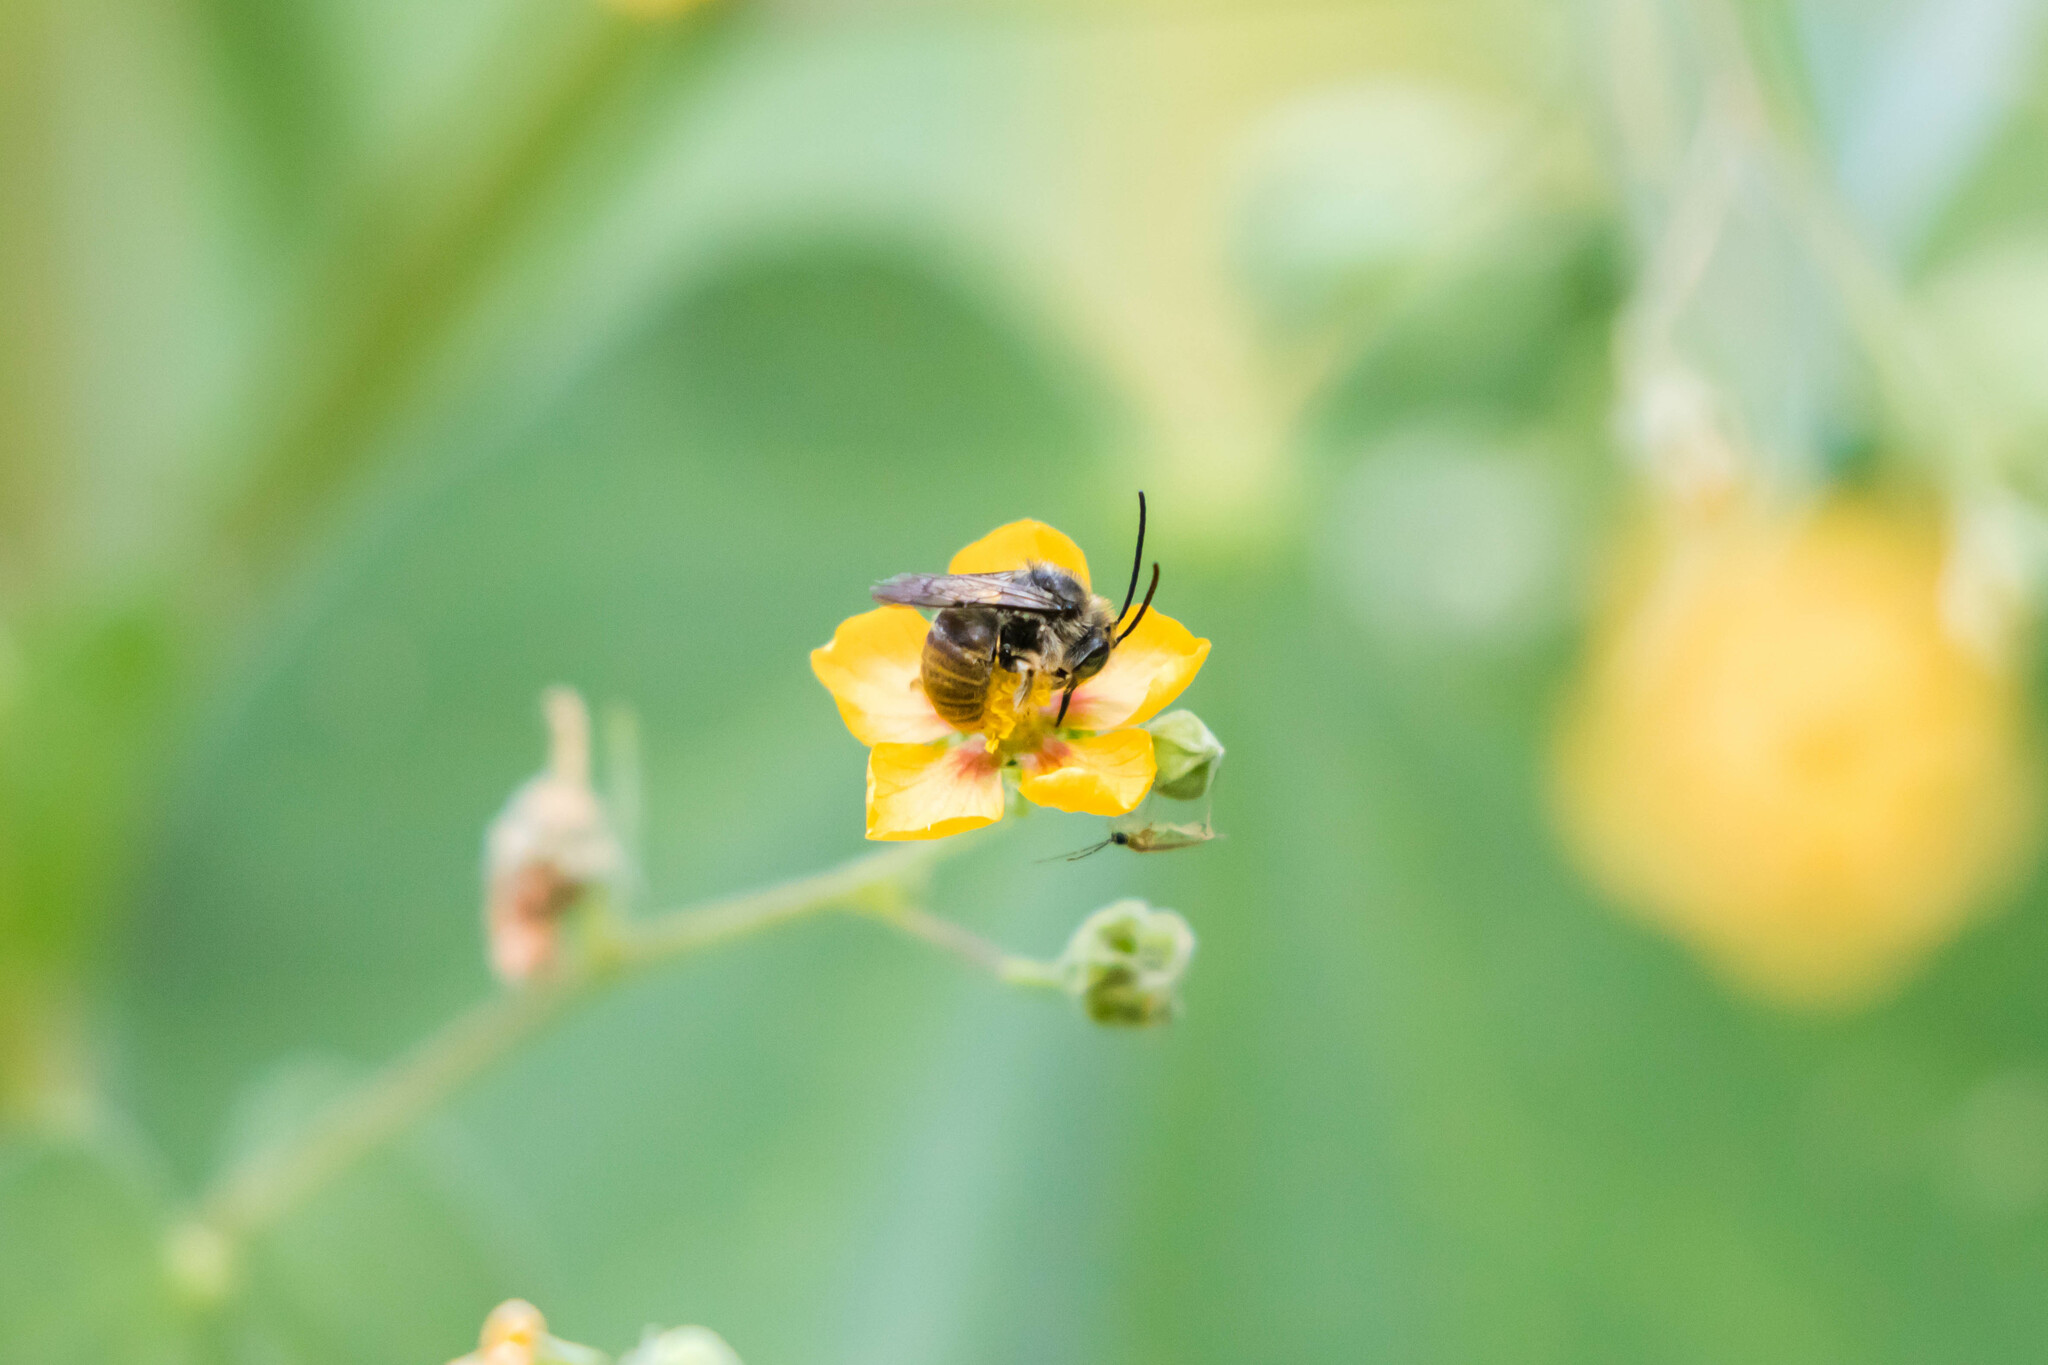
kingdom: Animalia
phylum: Arthropoda
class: Insecta
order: Hymenoptera
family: Apidae
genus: Melissoptila
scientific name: Melissoptila otomita
